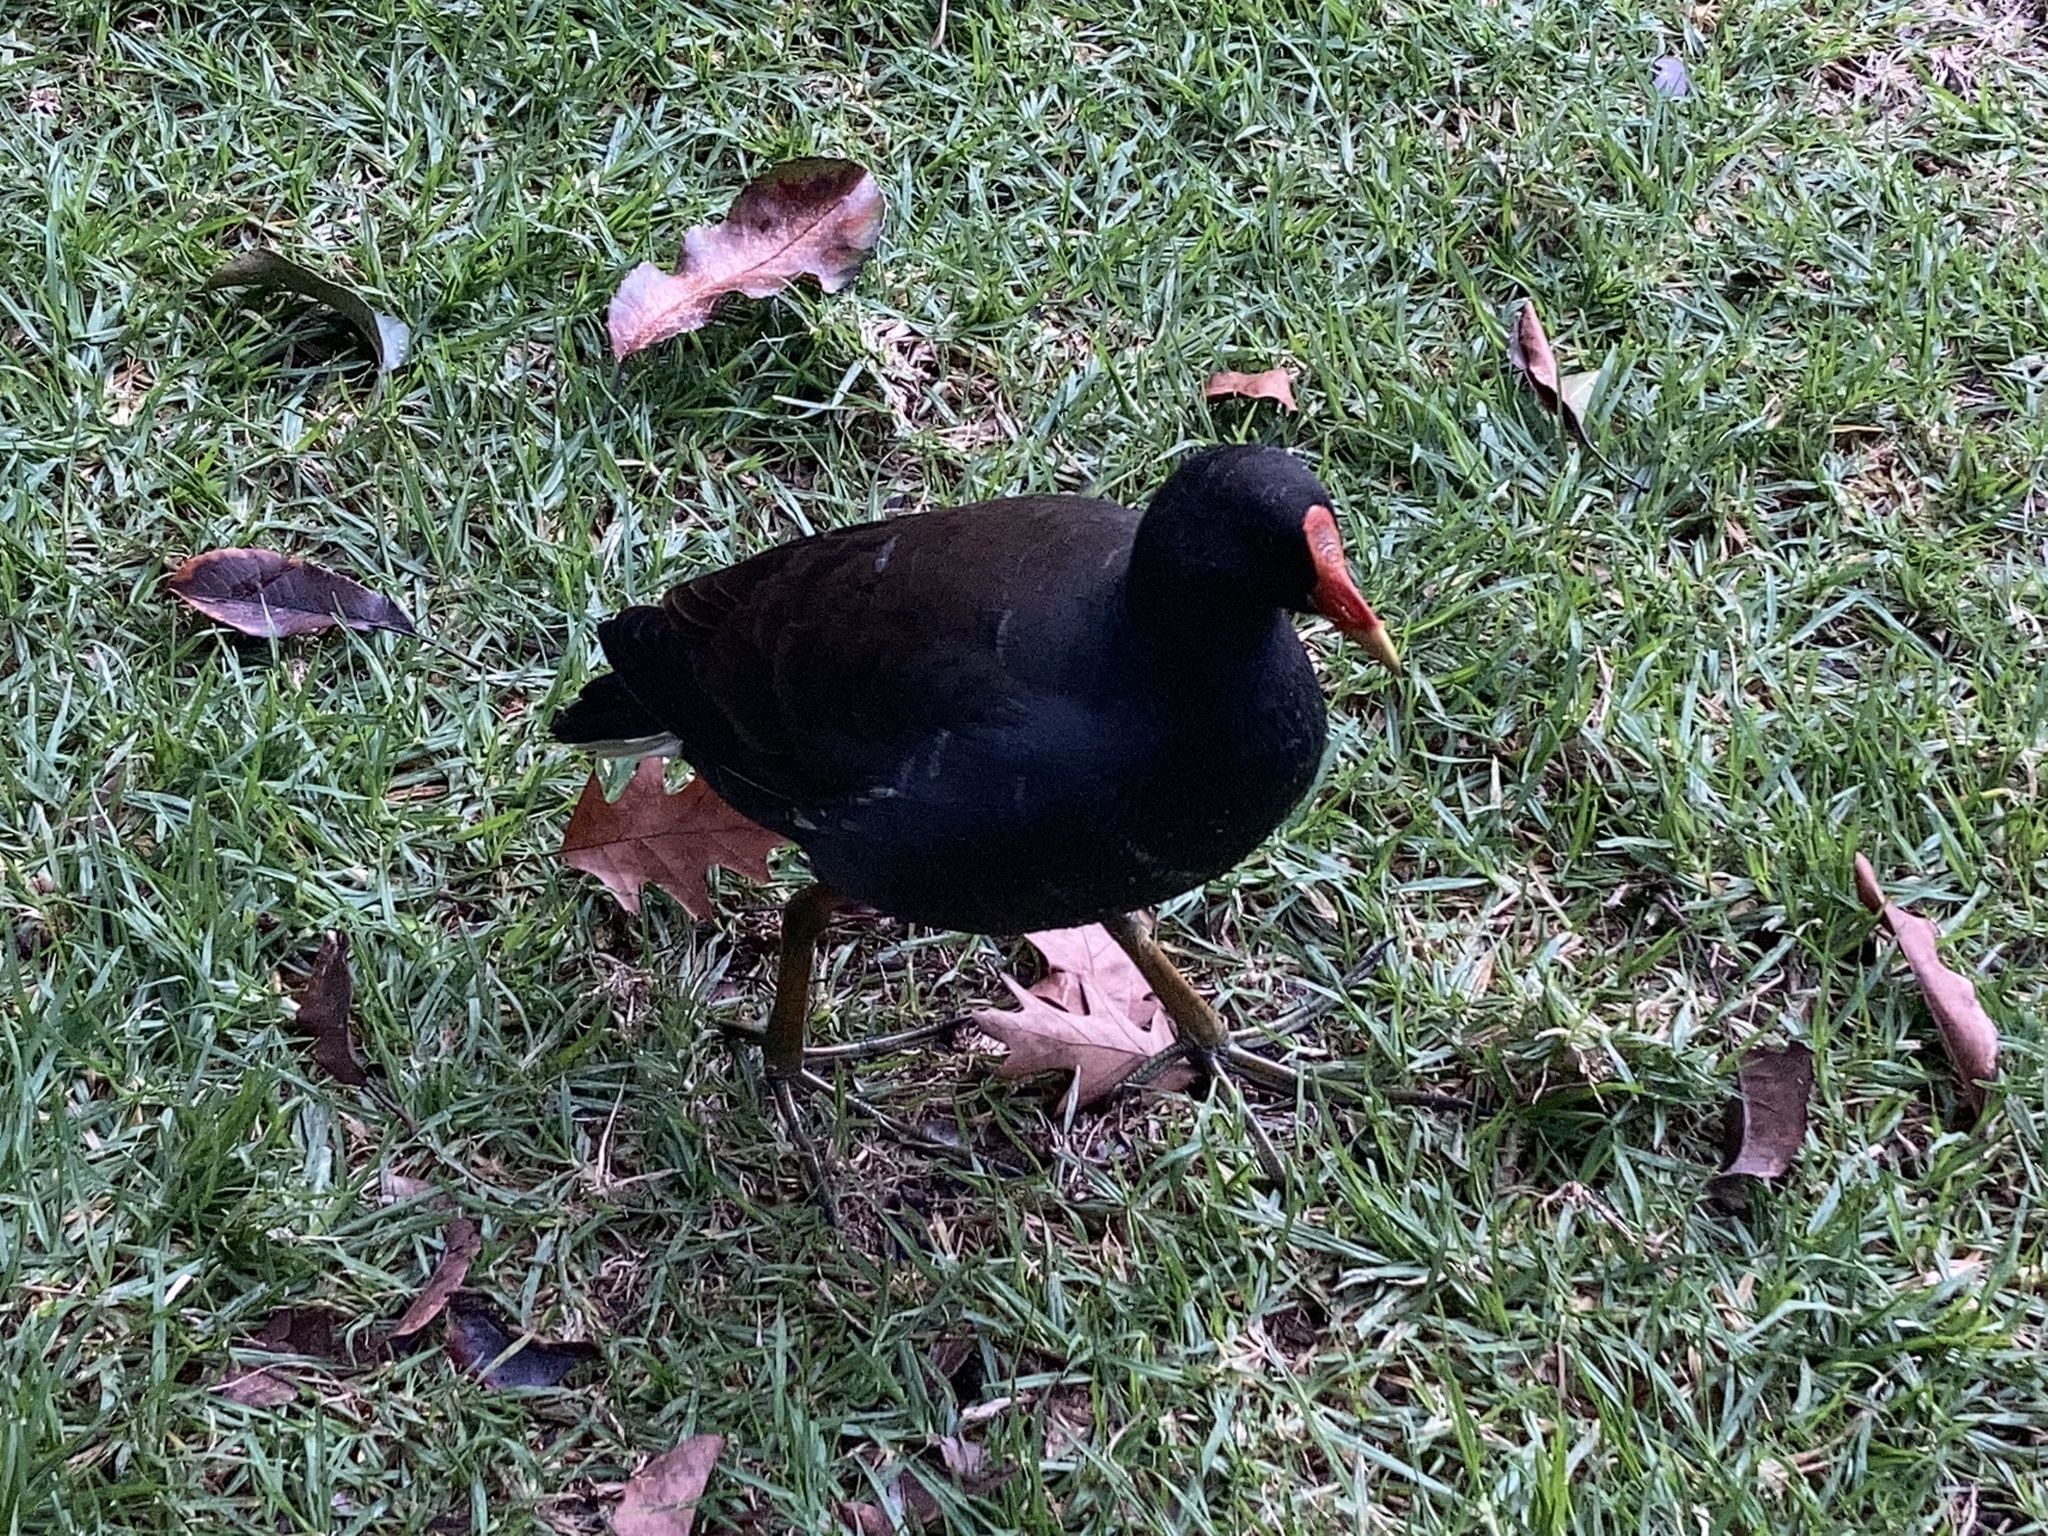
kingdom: Animalia
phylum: Chordata
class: Aves
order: Gruiformes
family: Rallidae
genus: Gallinula
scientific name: Gallinula tenebrosa
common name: Dusky moorhen
